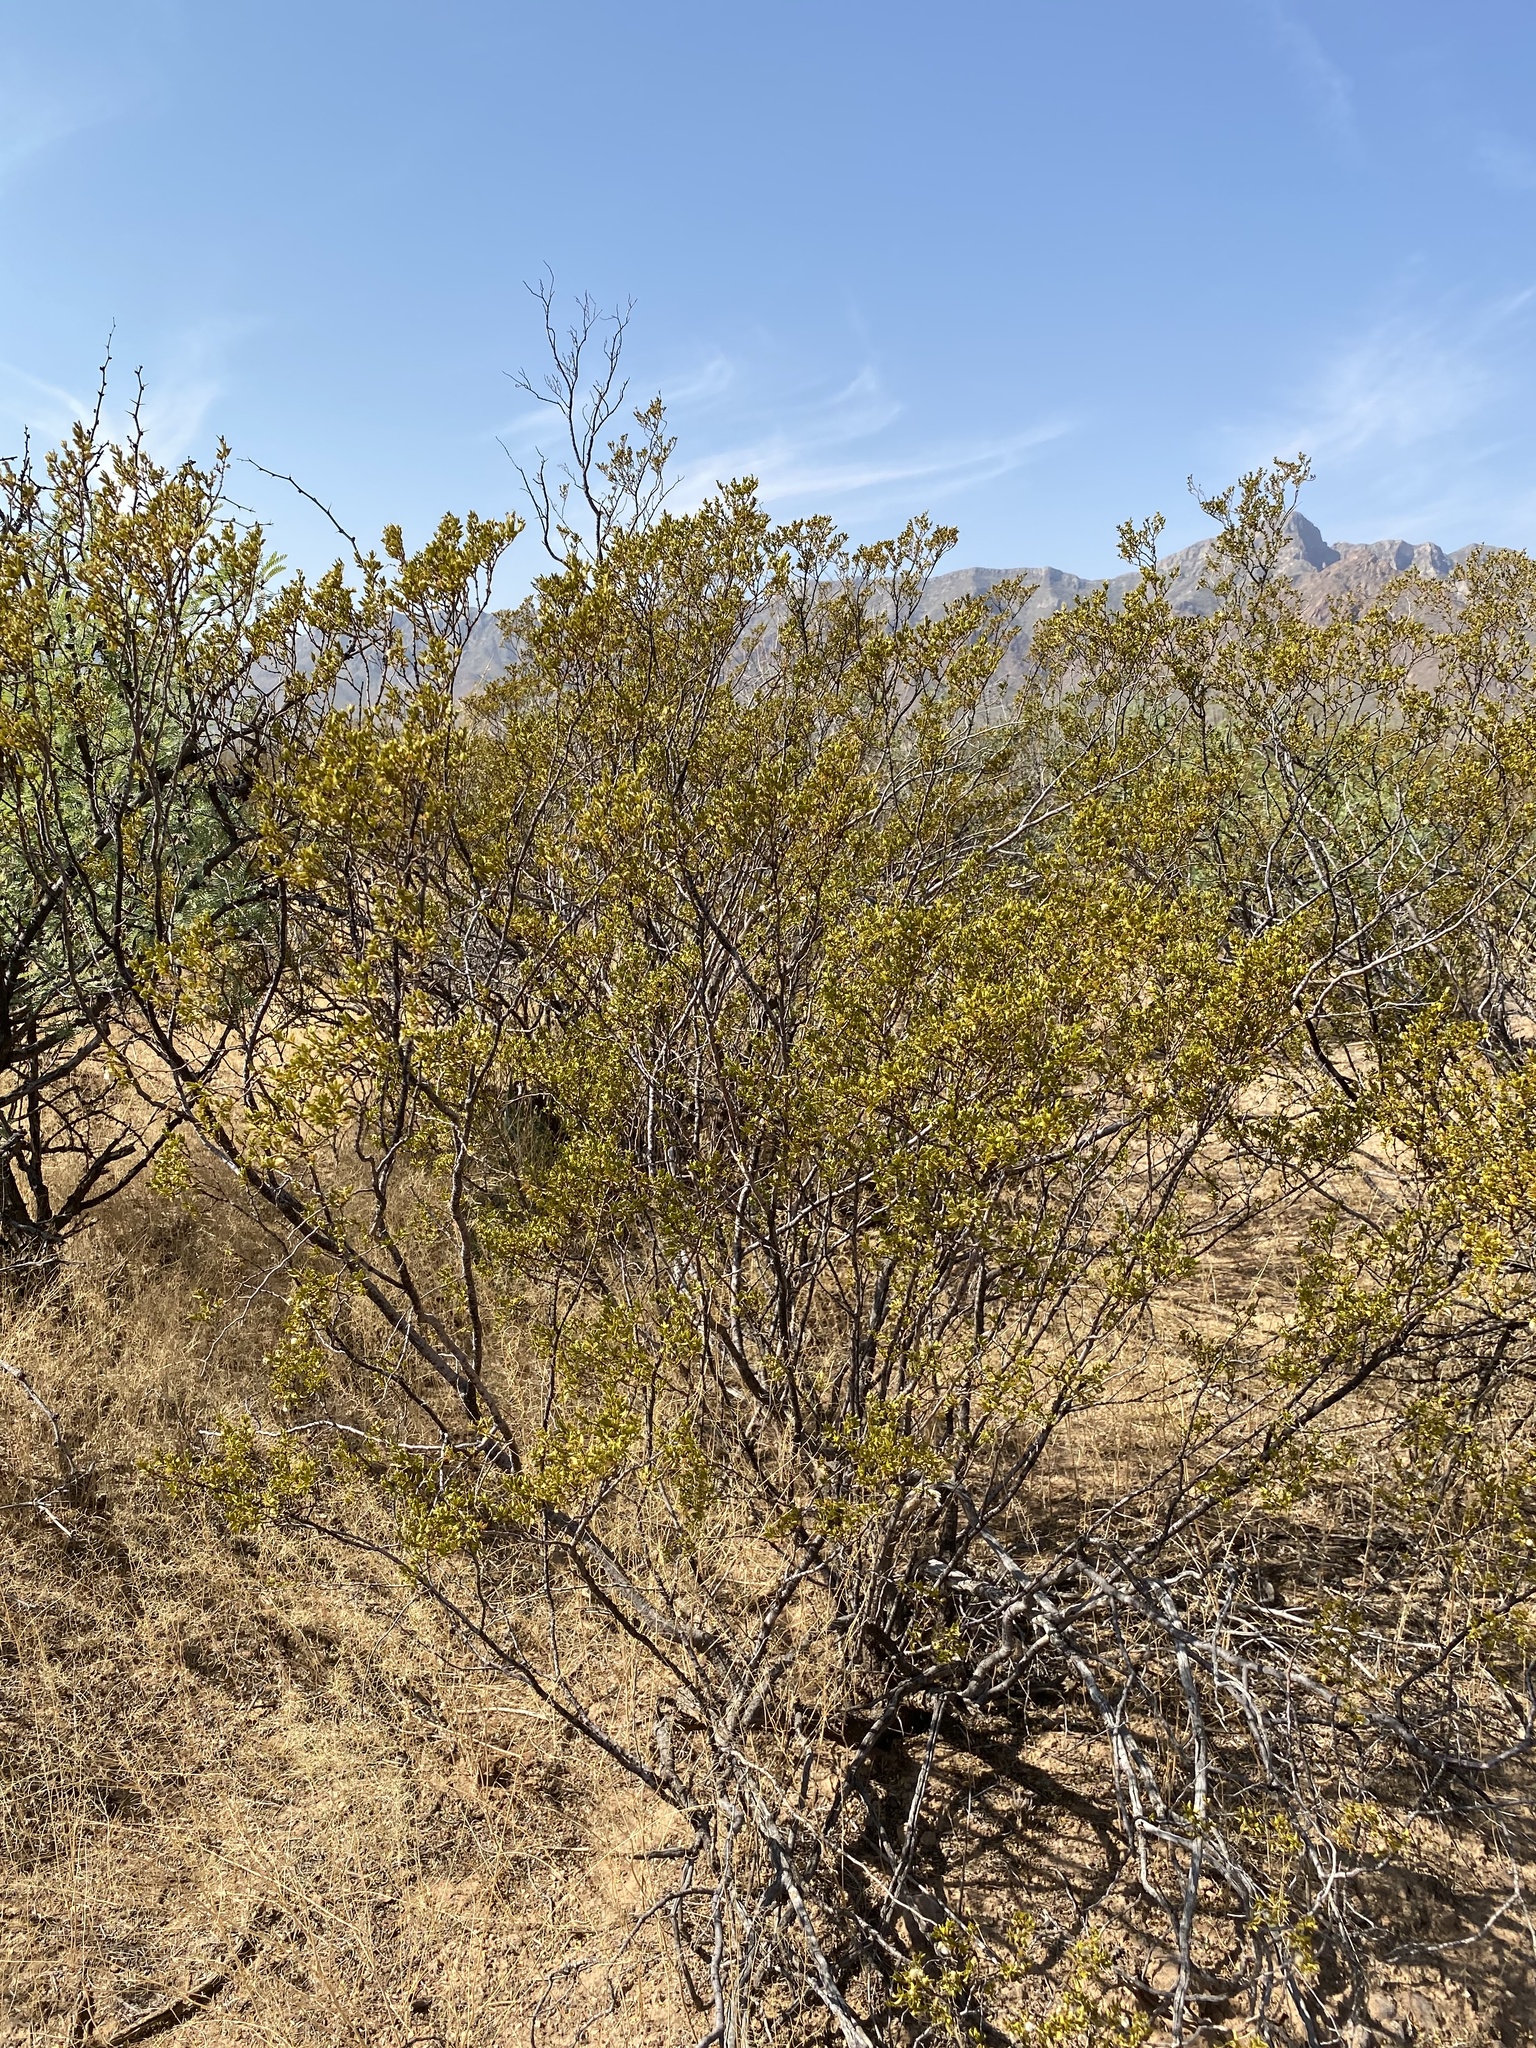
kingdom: Plantae
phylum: Tracheophyta
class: Magnoliopsida
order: Zygophyllales
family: Zygophyllaceae
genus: Larrea
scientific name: Larrea tridentata
